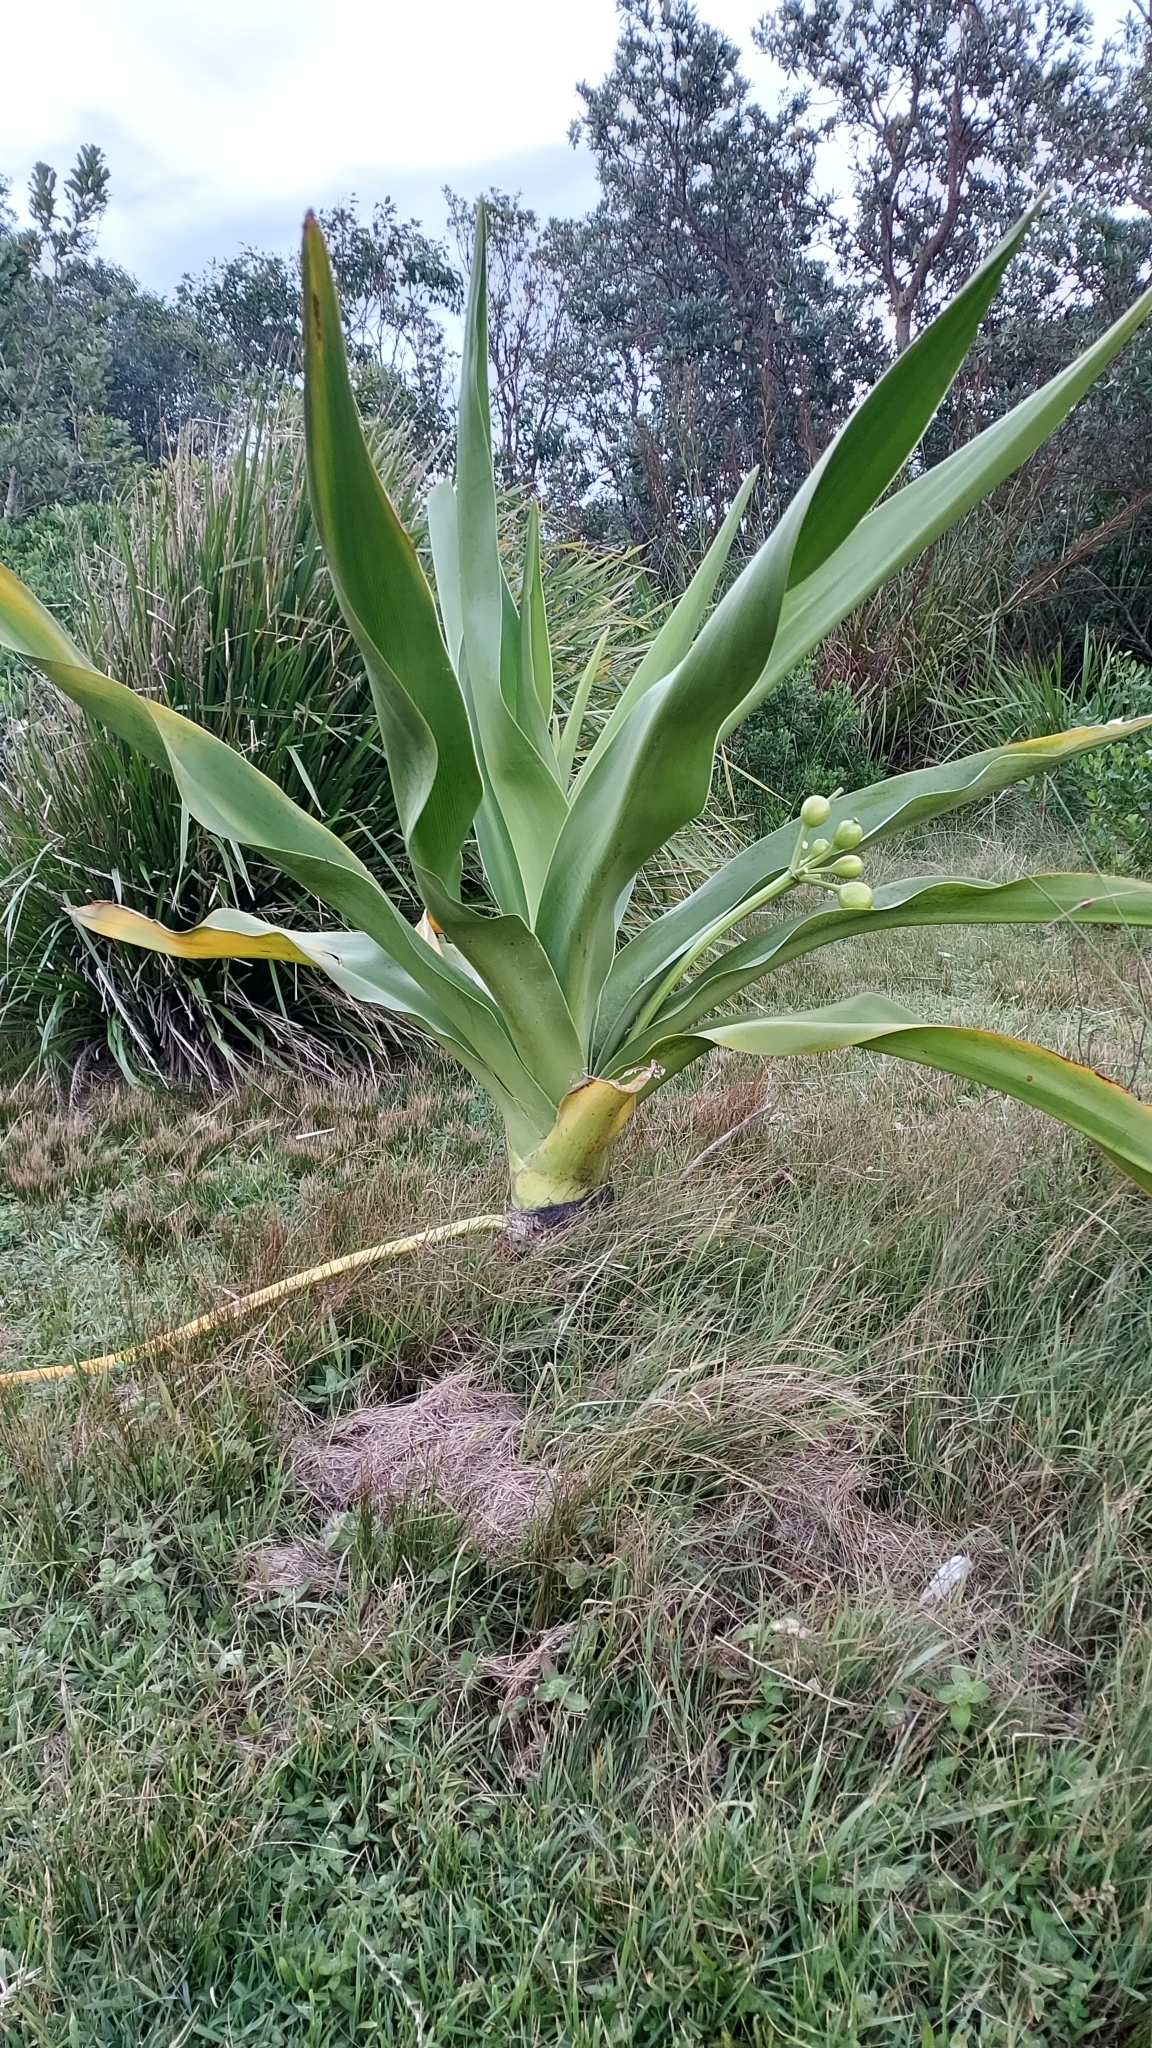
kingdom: Plantae
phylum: Tracheophyta
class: Liliopsida
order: Asparagales
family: Amaryllidaceae
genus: Crinum
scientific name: Crinum pedunculatum
